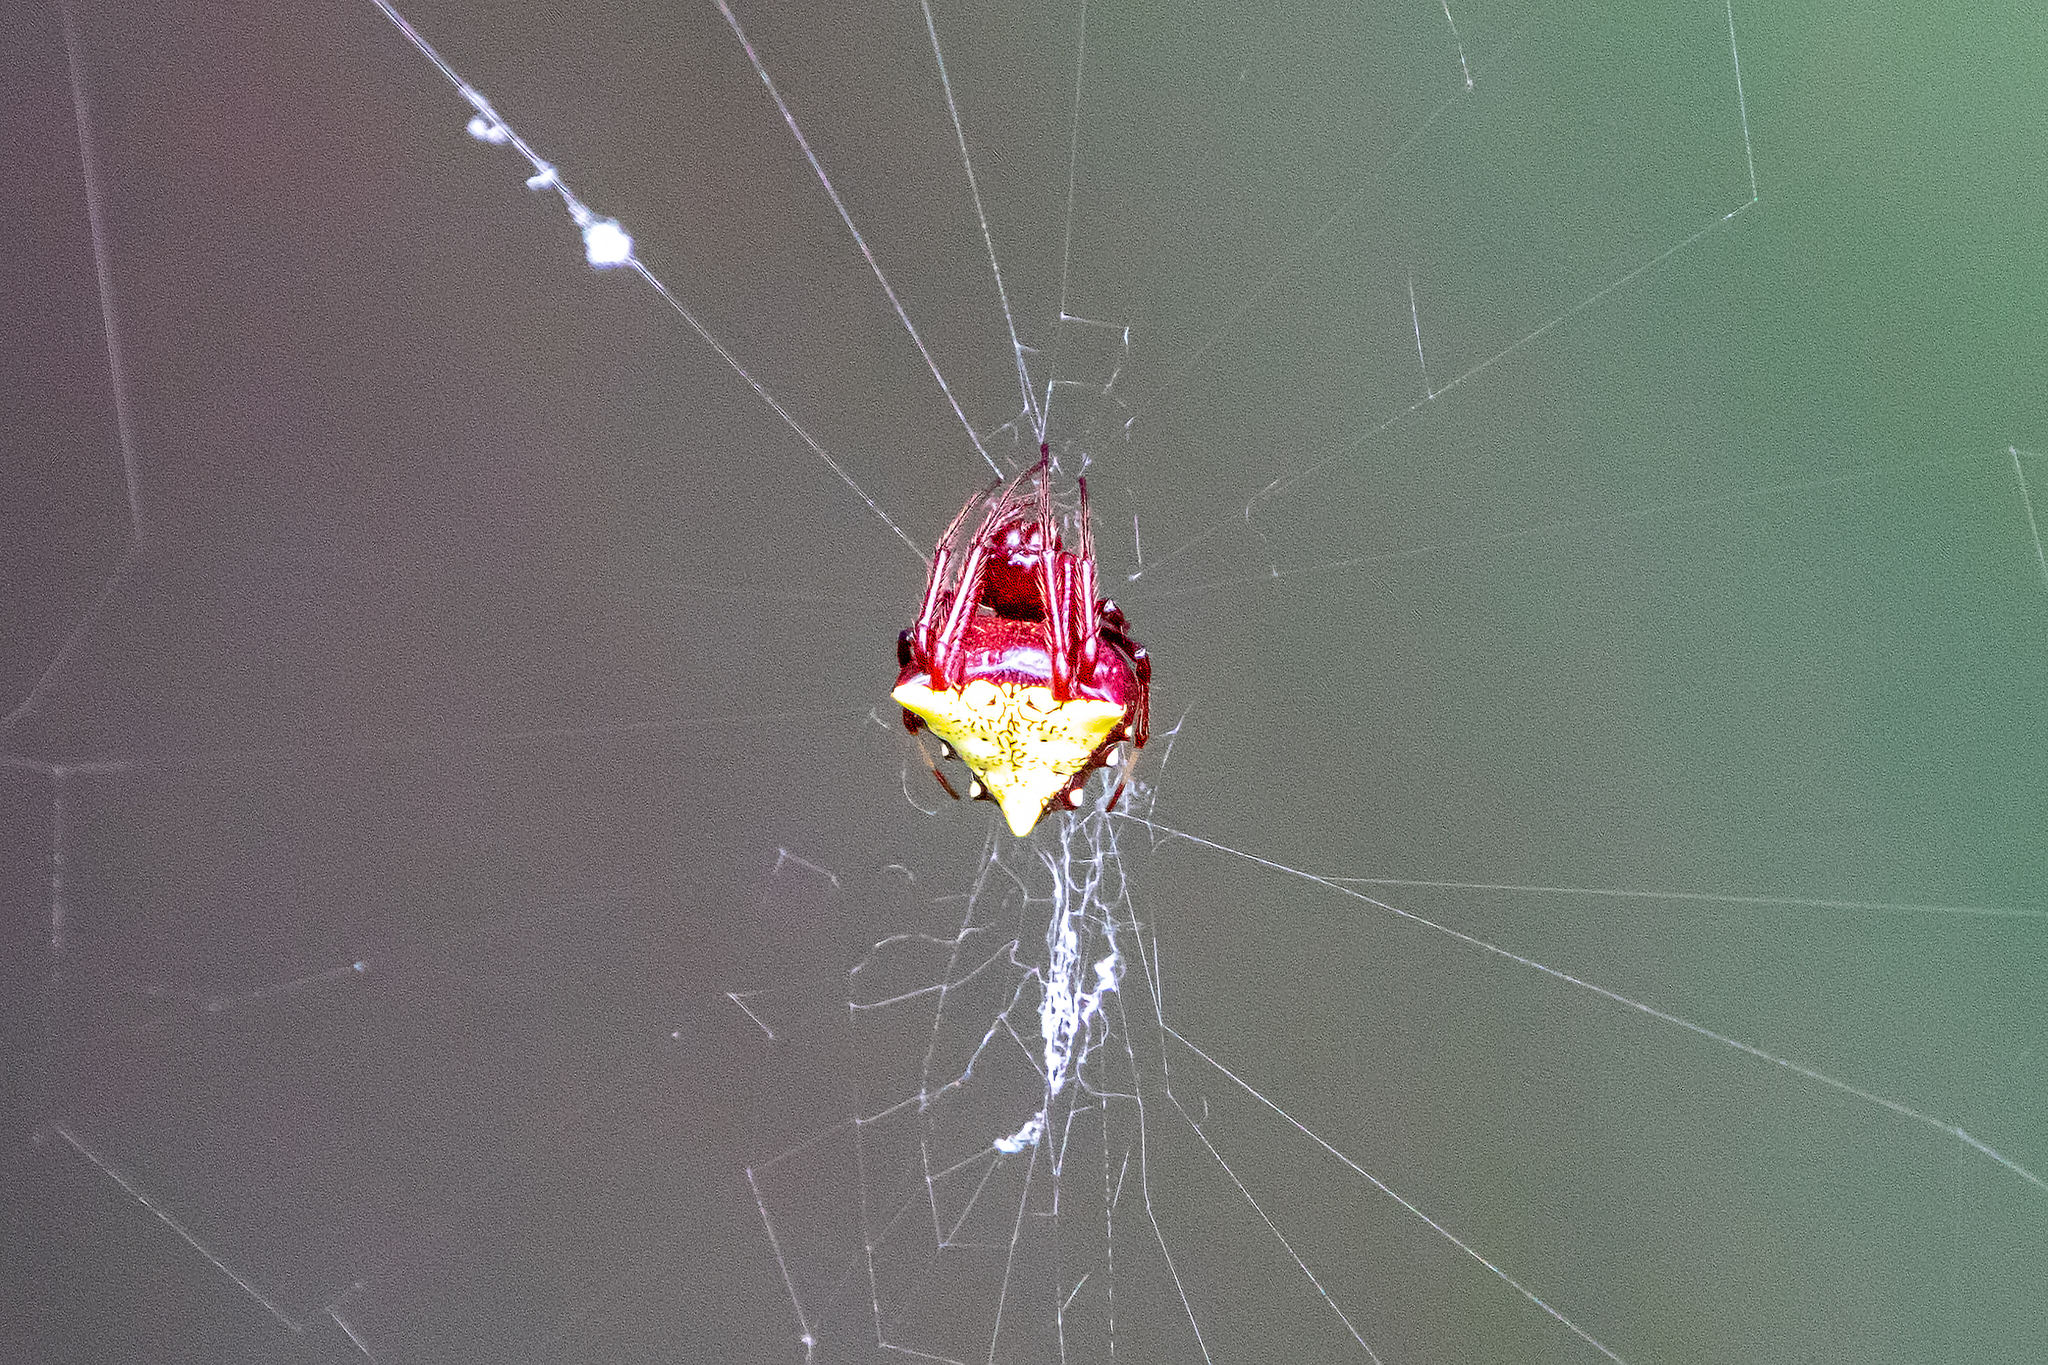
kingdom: Animalia
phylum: Arthropoda
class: Arachnida
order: Araneae
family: Araneidae
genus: Verrucosa
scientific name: Verrucosa arenata
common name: Orb weavers
